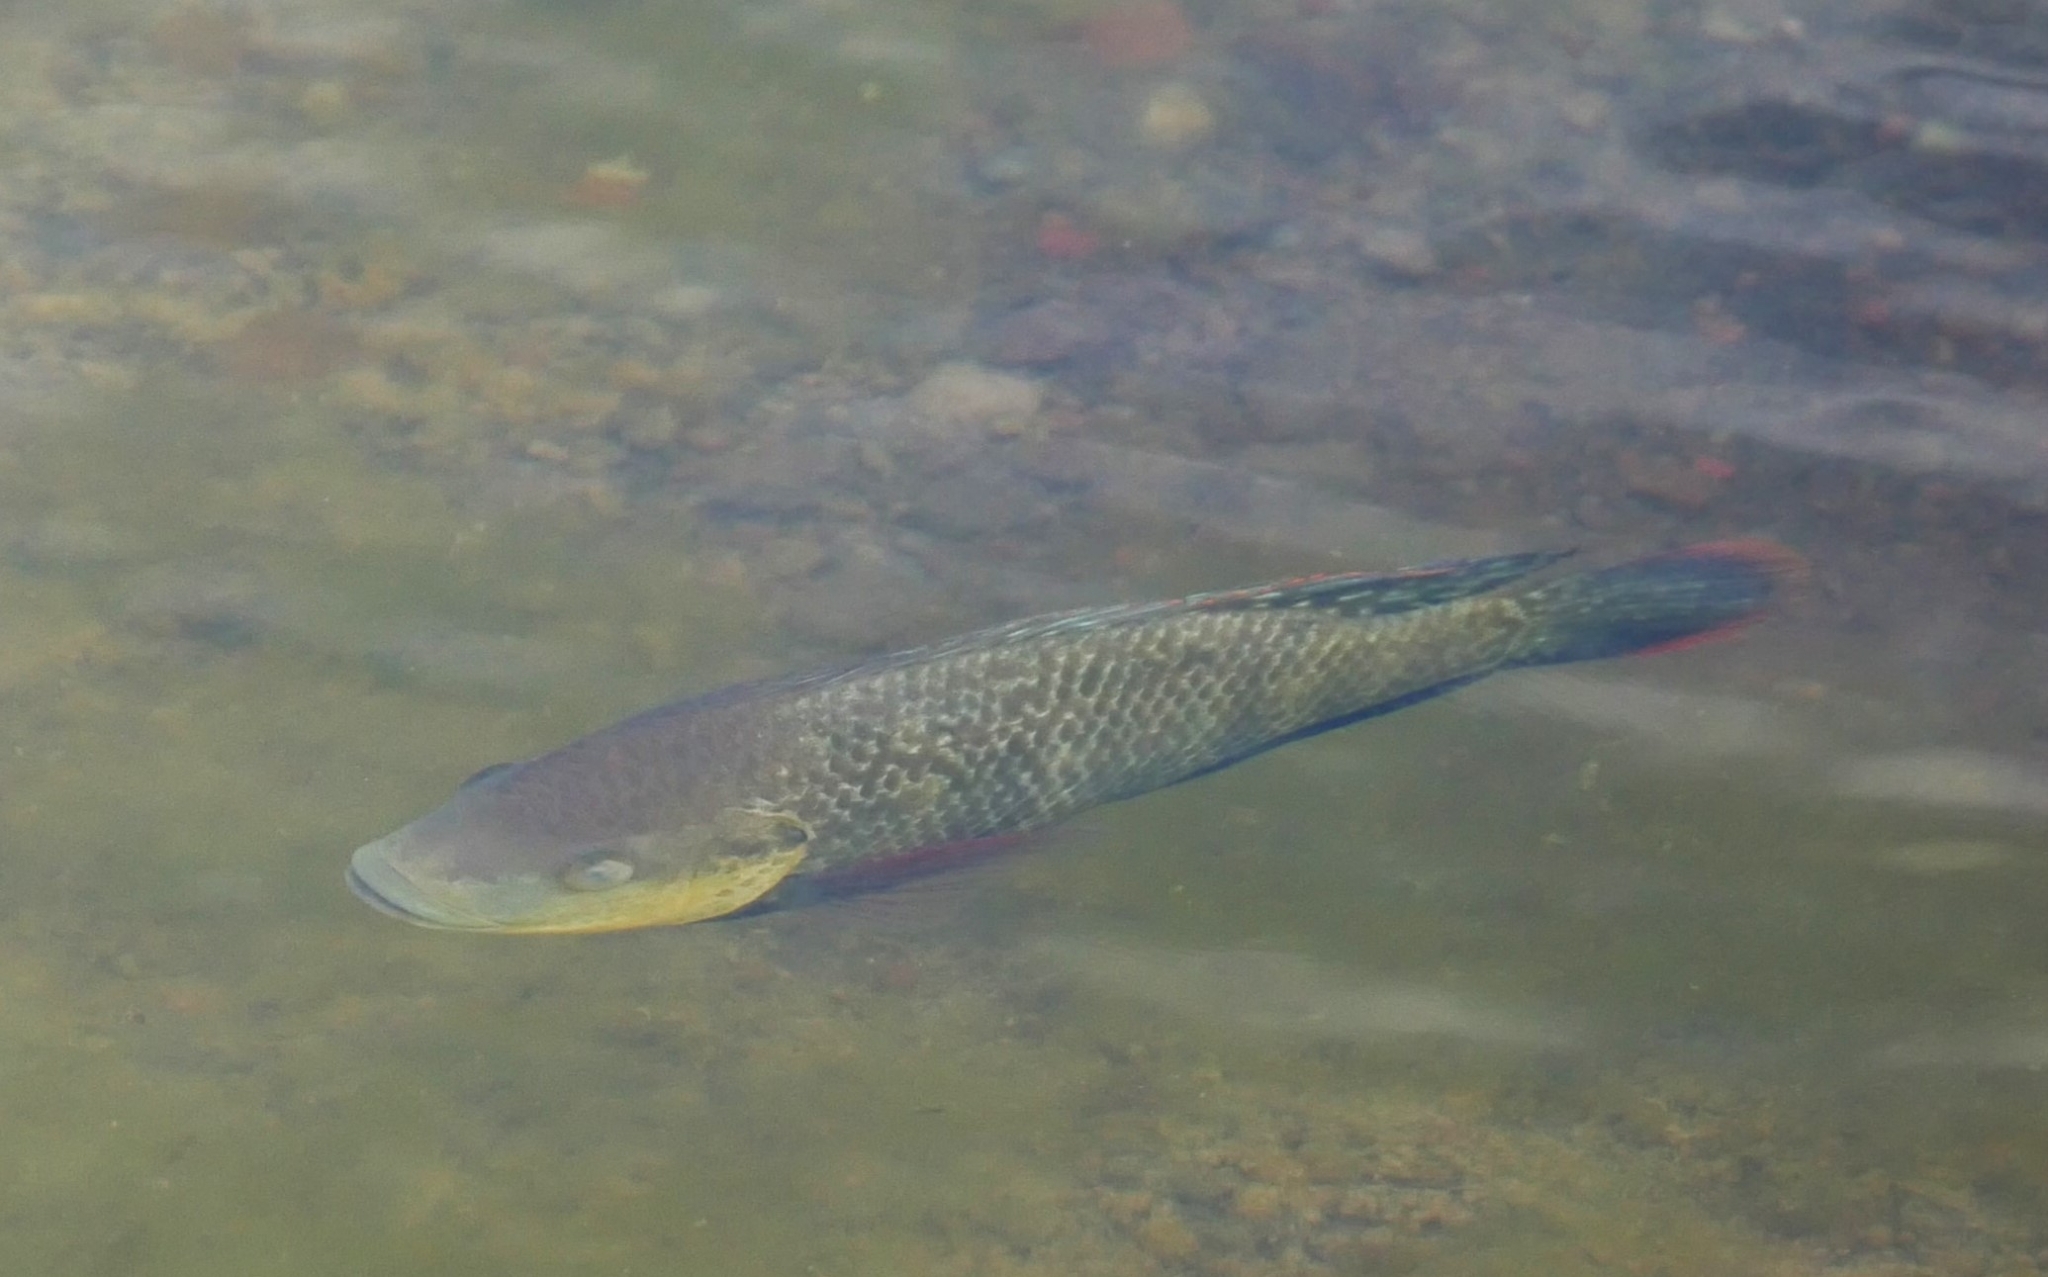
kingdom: Animalia
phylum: Chordata
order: Perciformes
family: Cichlidae
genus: Oreochromis
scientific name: Oreochromis mossambicus
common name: Mozambique tilapia
